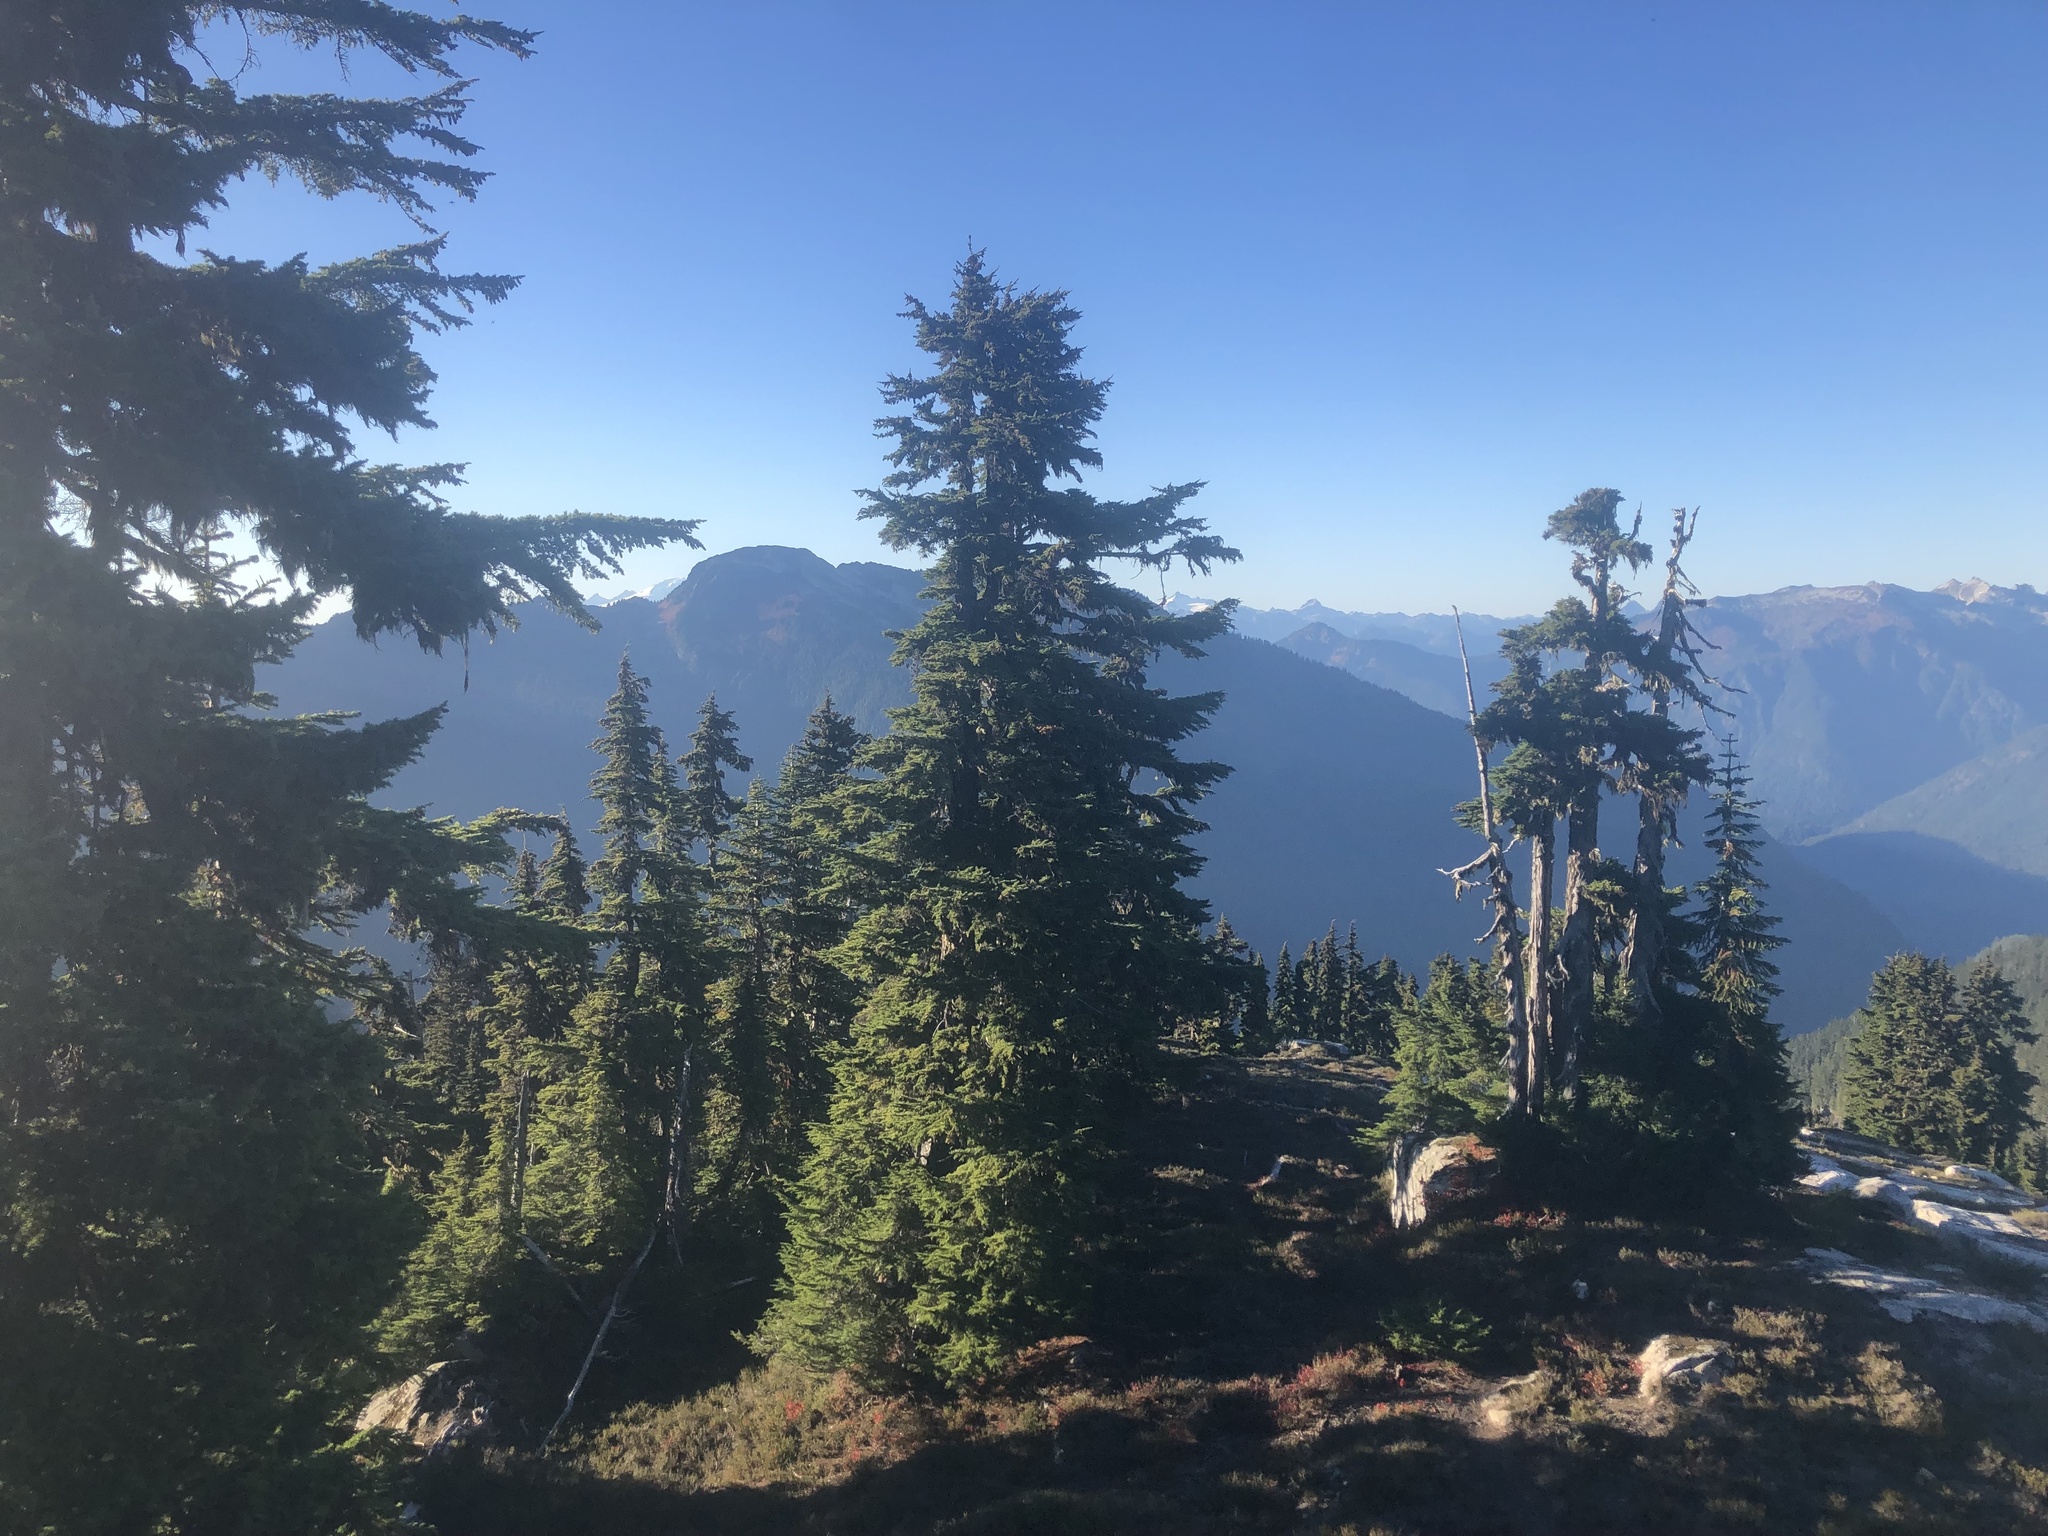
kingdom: Plantae
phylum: Tracheophyta
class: Pinopsida
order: Pinales
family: Pinaceae
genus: Tsuga
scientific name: Tsuga mertensiana
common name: Mountain hemlock
